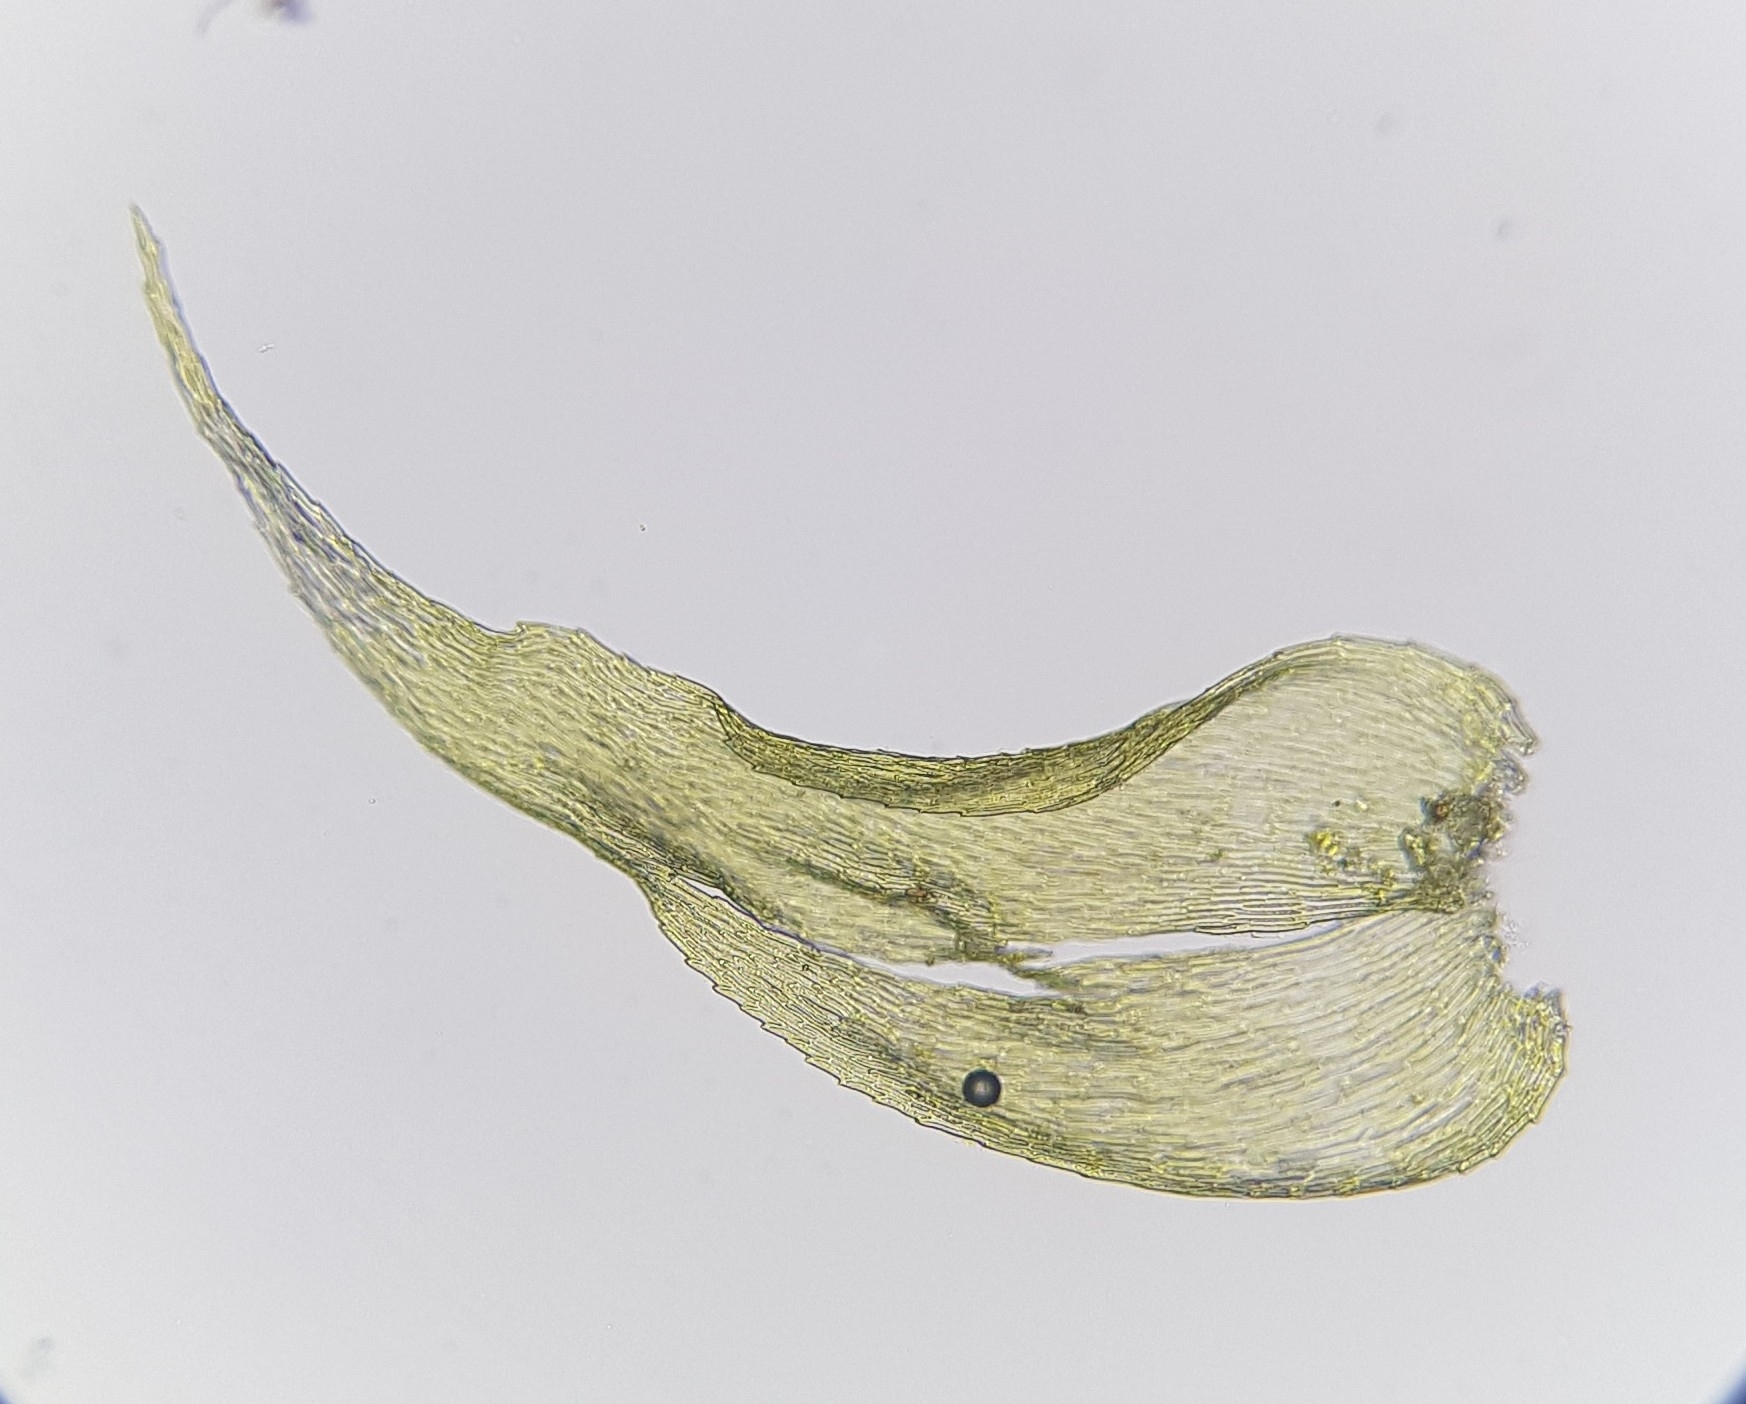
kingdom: Plantae
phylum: Bryophyta
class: Bryopsida
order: Hypnales
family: Myuriaceae
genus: Ctenidium
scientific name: Ctenidium molluscum
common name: Chalk comb-moss
